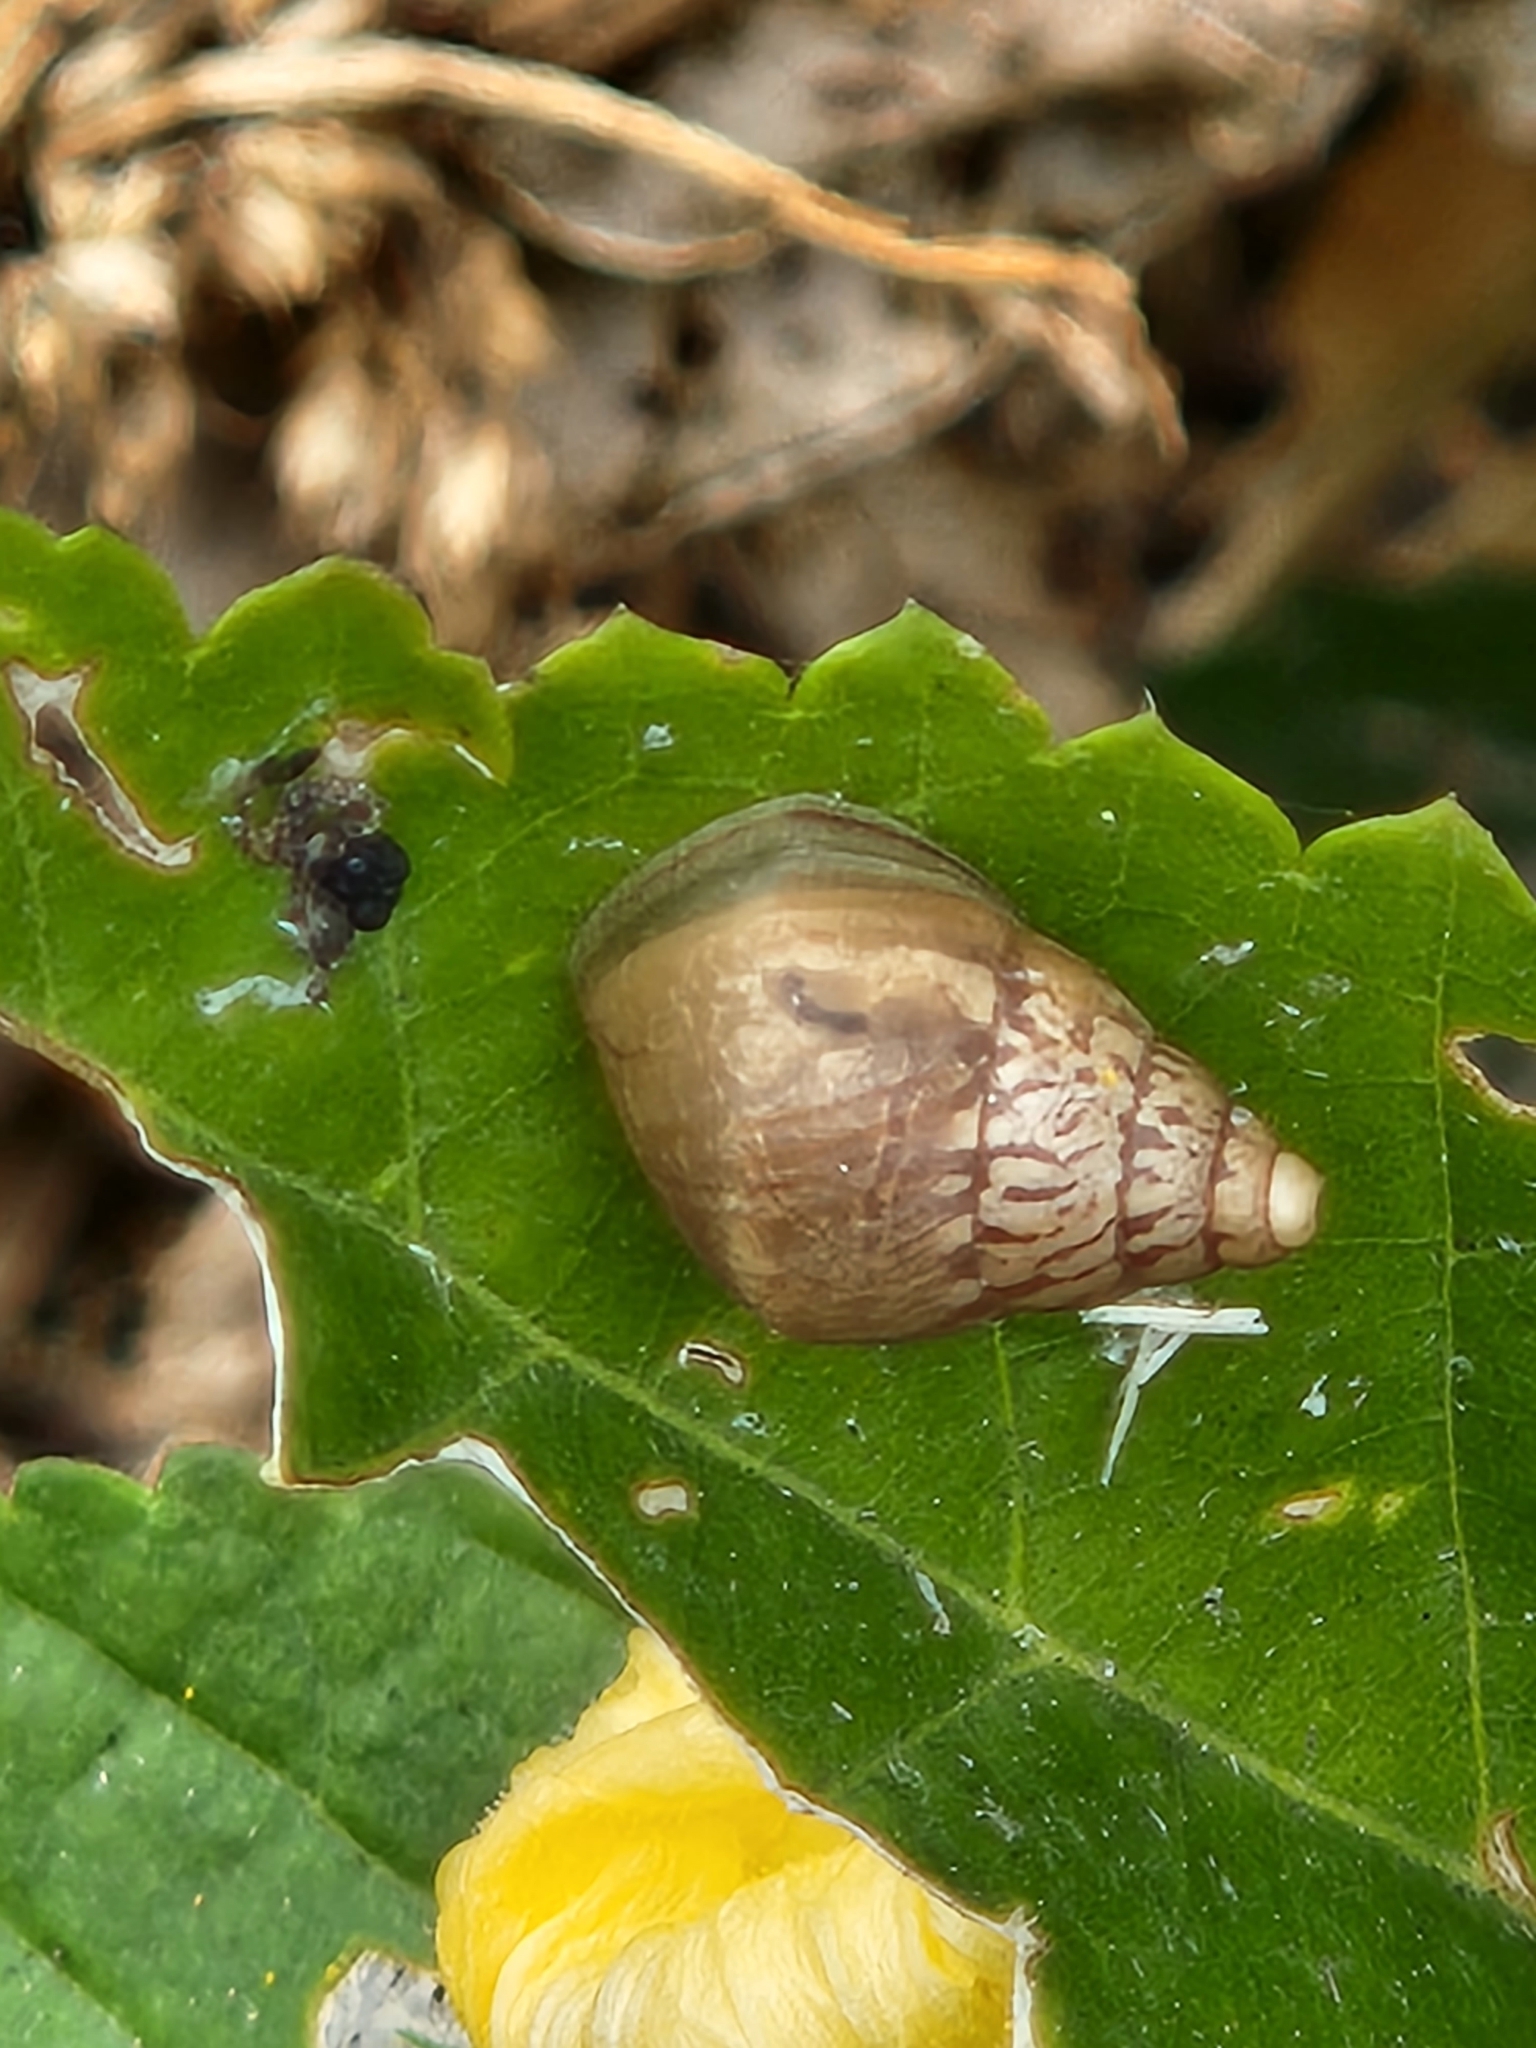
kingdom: Animalia
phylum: Mollusca
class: Gastropoda
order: Stylommatophora
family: Bulimulidae
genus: Bulimulus
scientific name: Bulimulus bonariensis
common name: Snail
